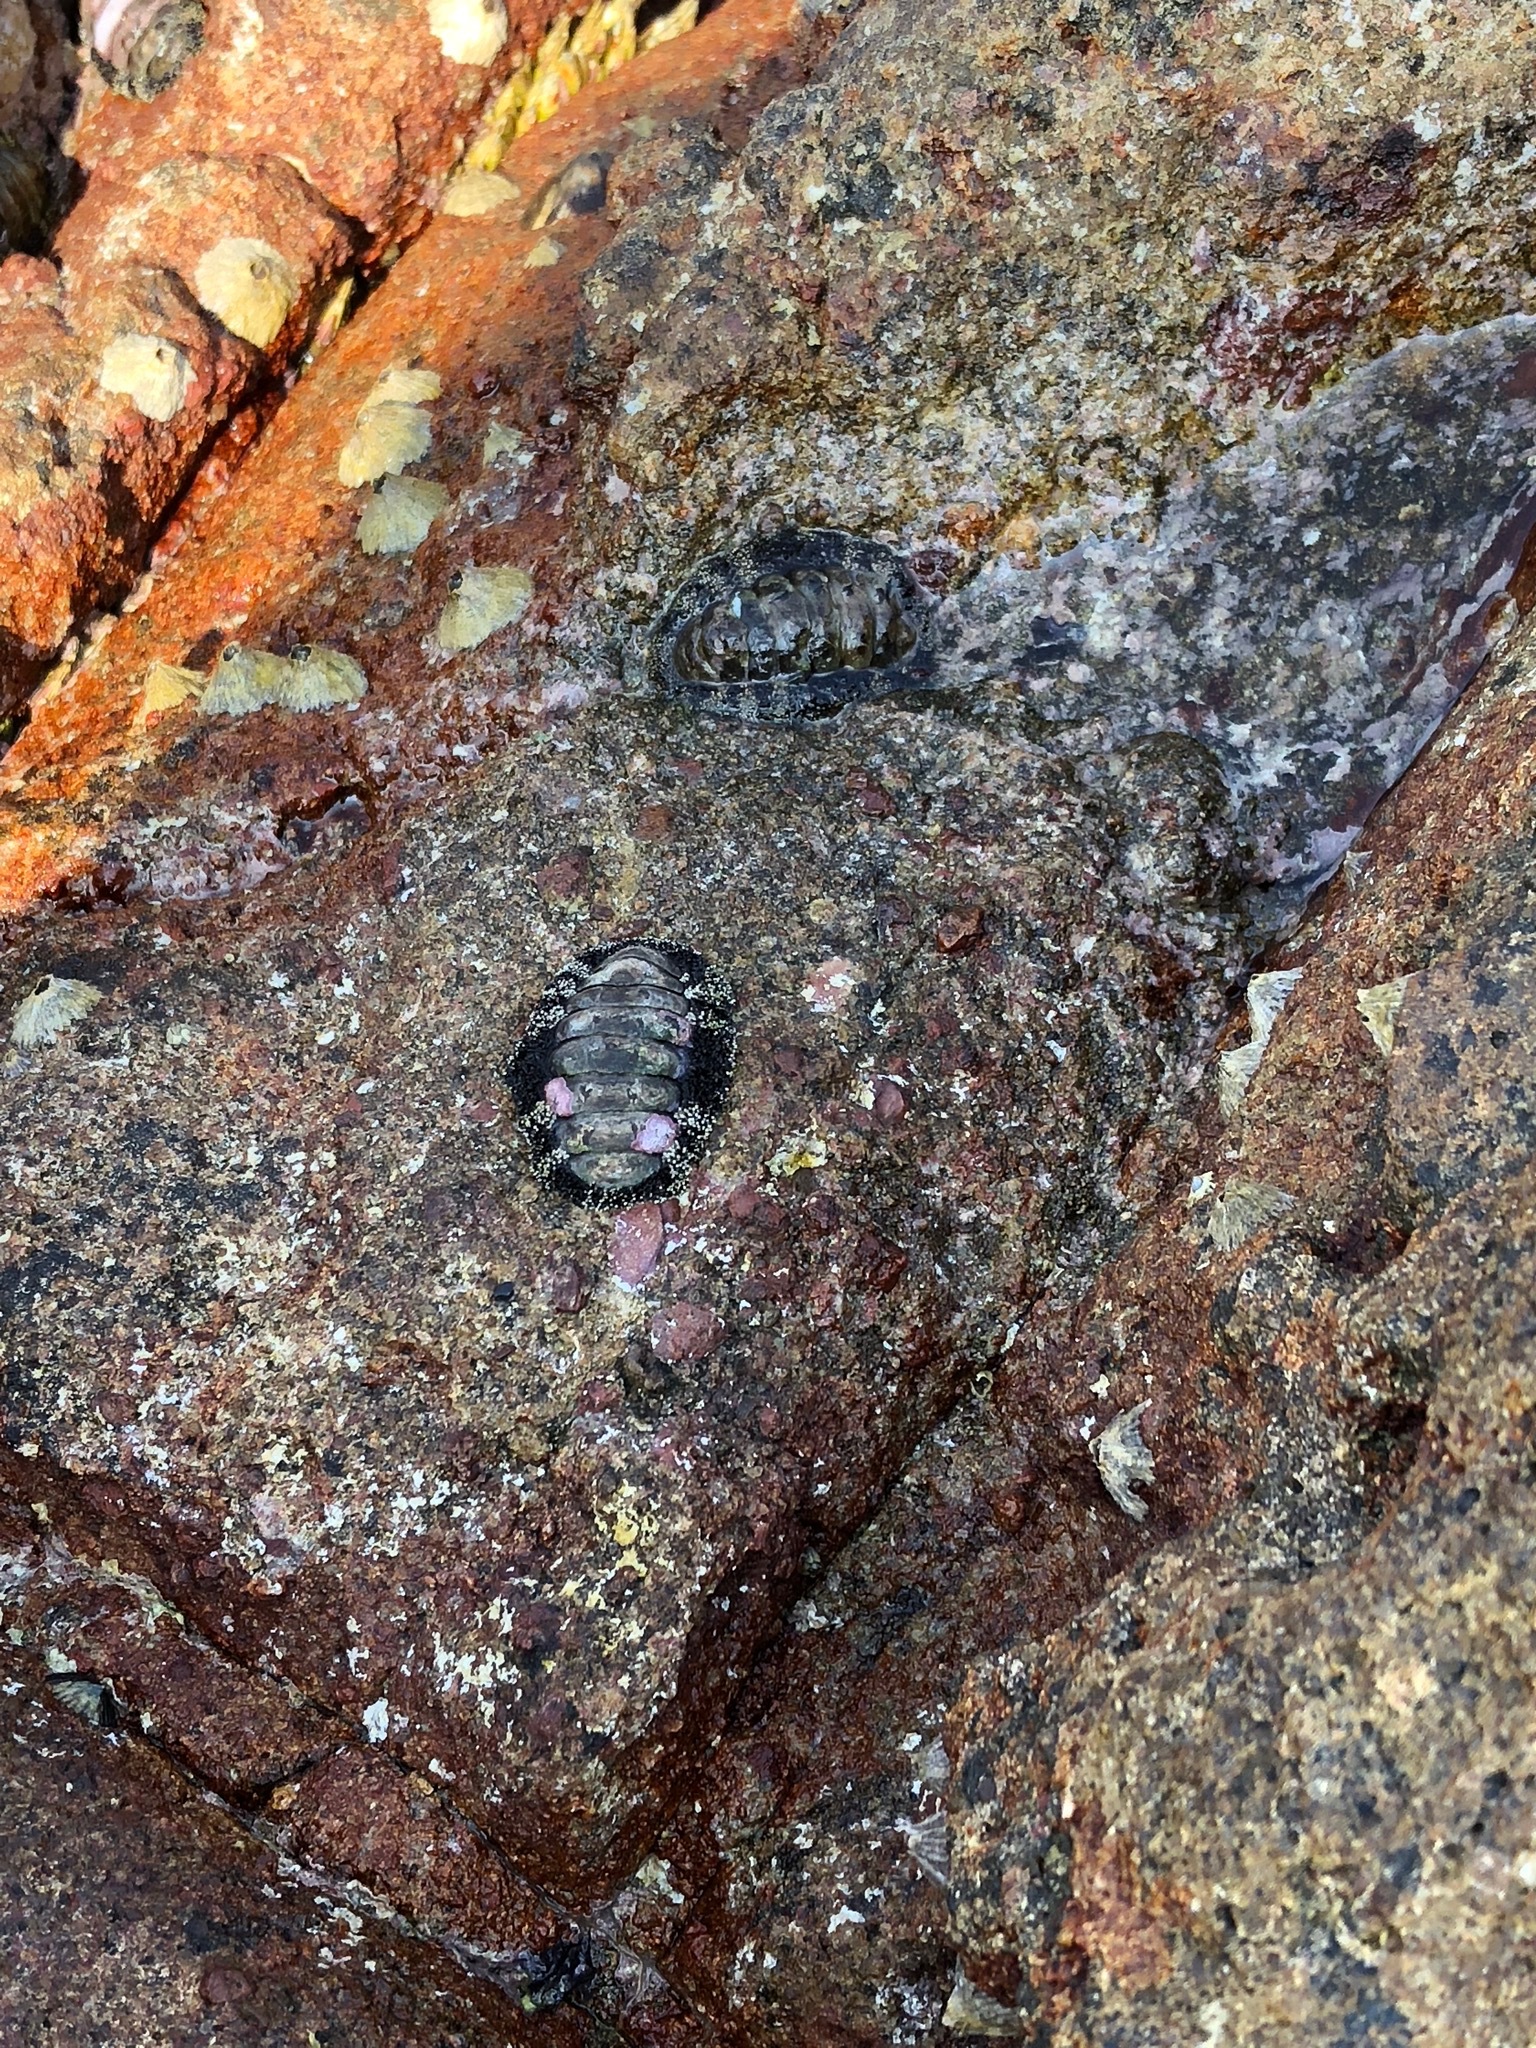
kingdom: Animalia
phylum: Mollusca
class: Polyplacophora
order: Chitonida
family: Chitonidae
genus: Liolophura
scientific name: Liolophura japonica
